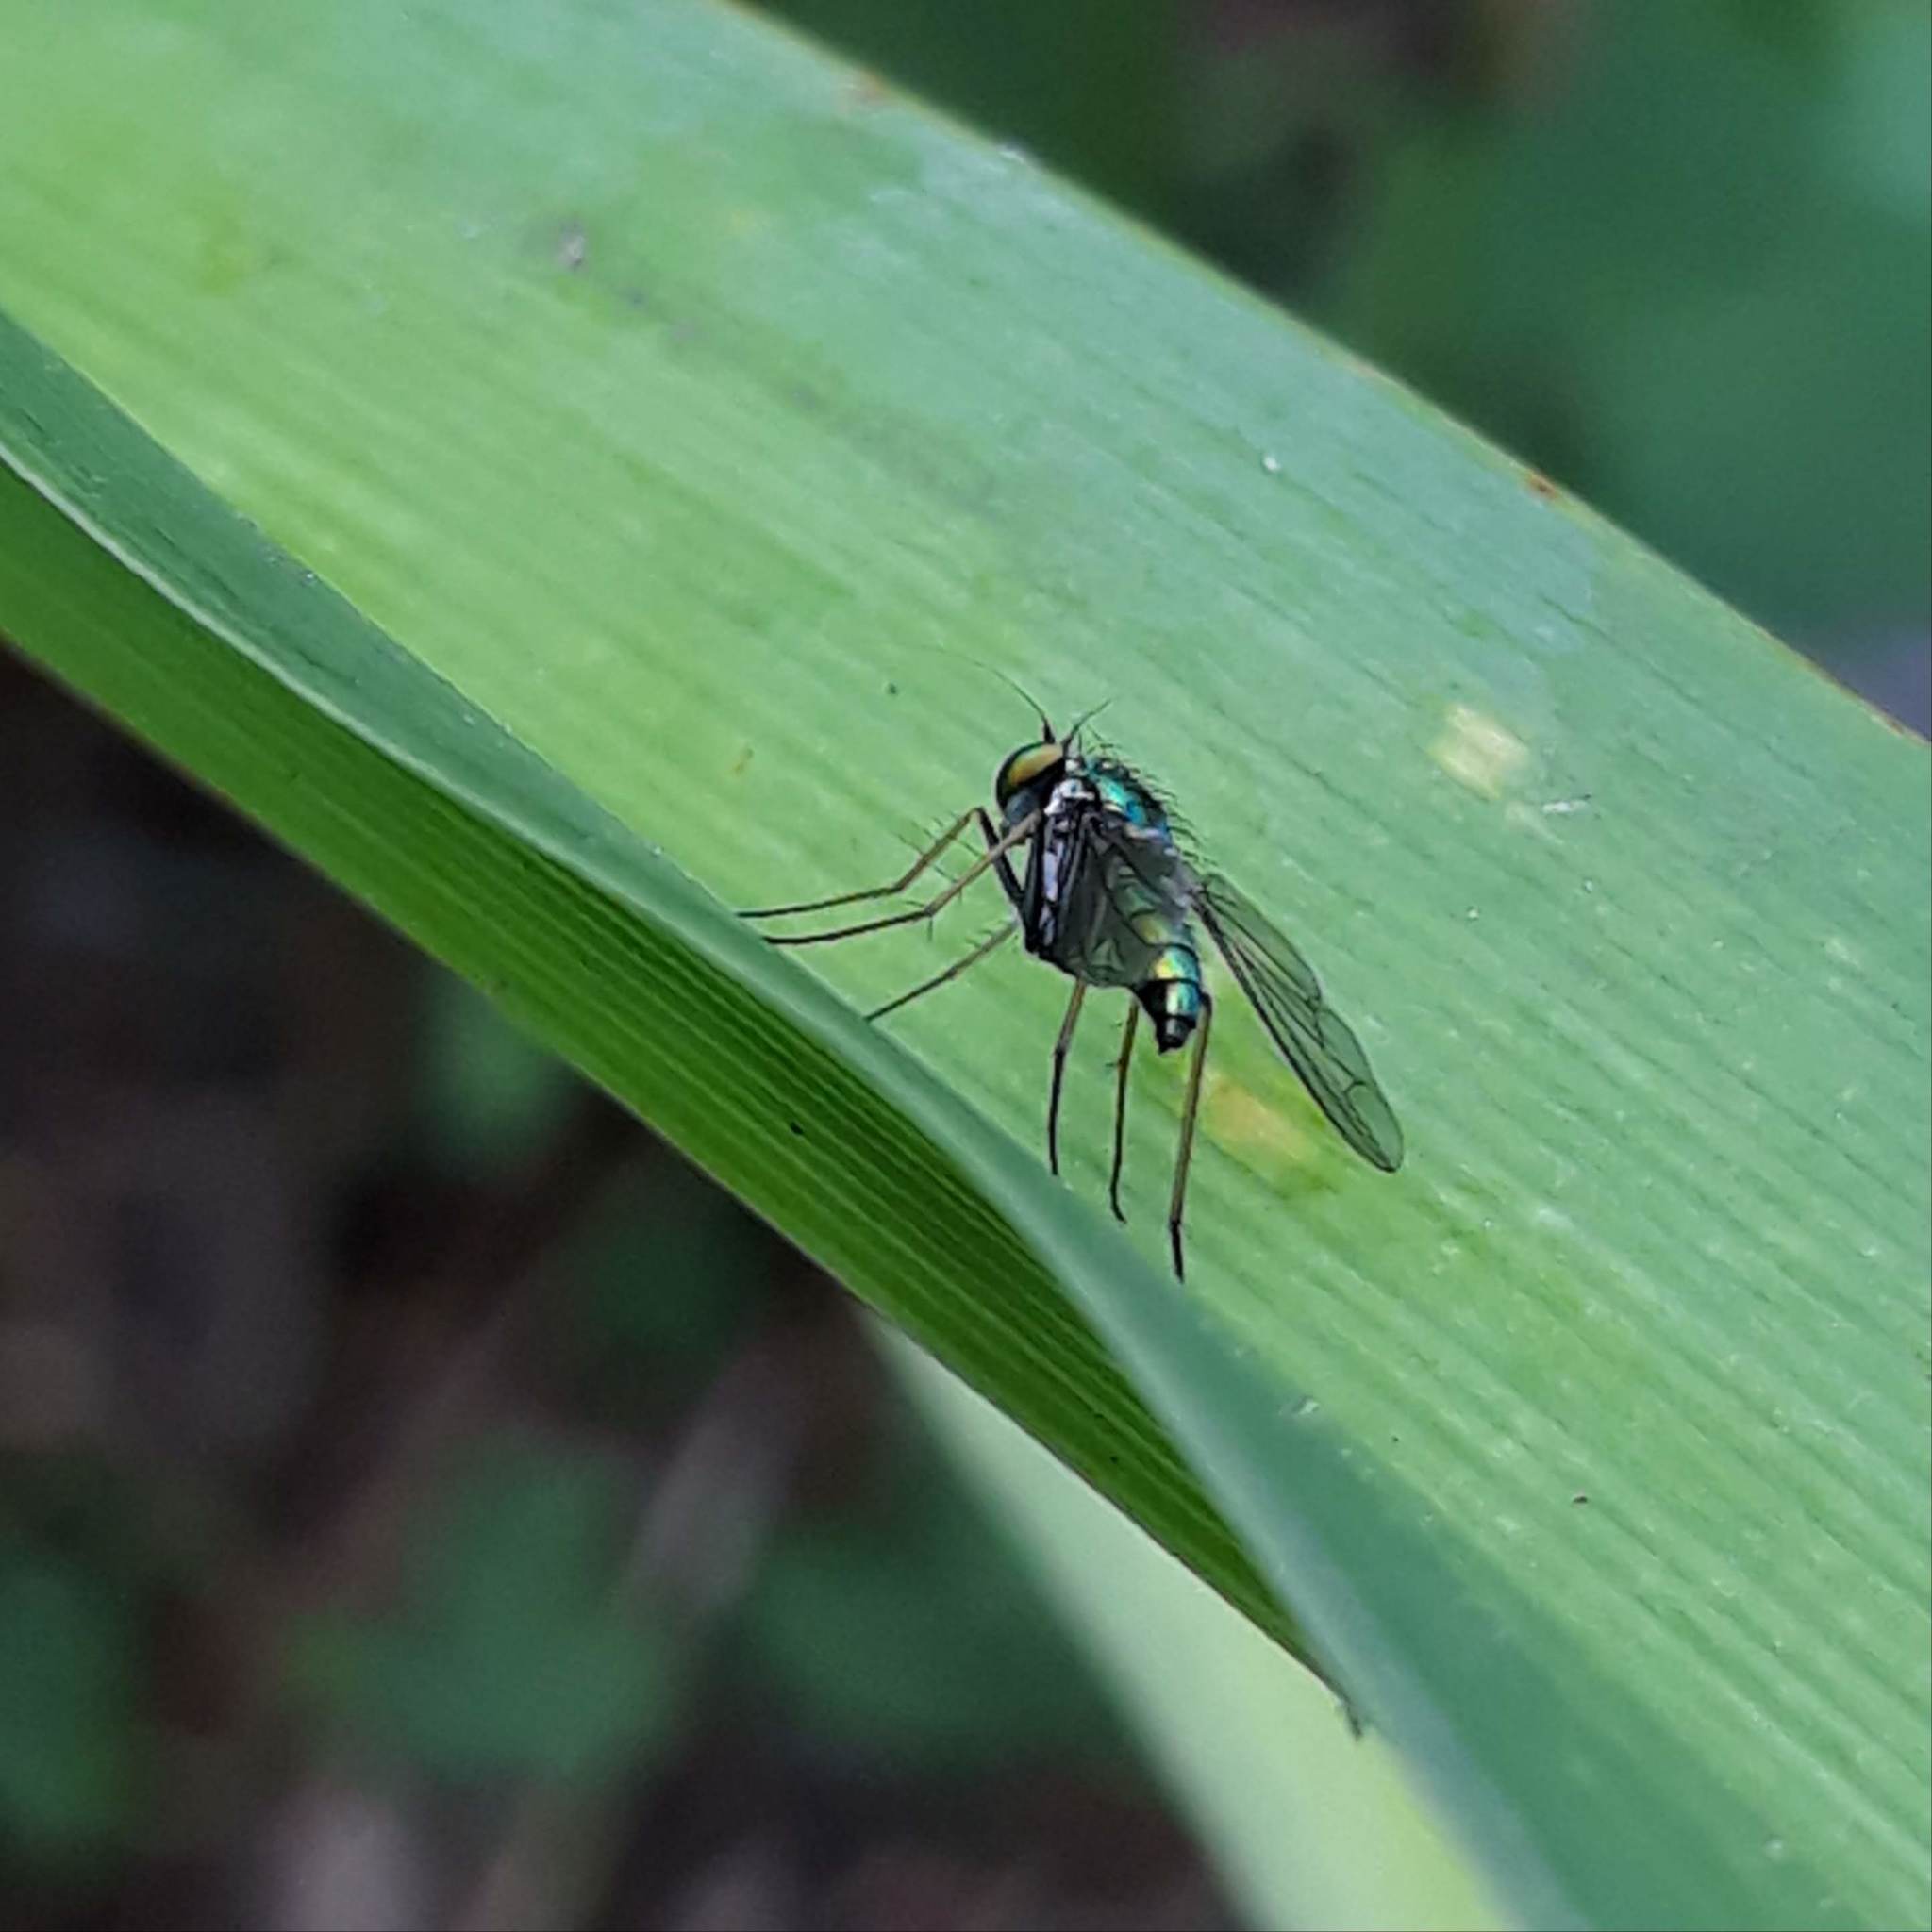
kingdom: Animalia
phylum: Arthropoda
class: Insecta
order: Diptera
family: Dolichopodidae
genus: Condylostylus
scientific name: Condylostylus
